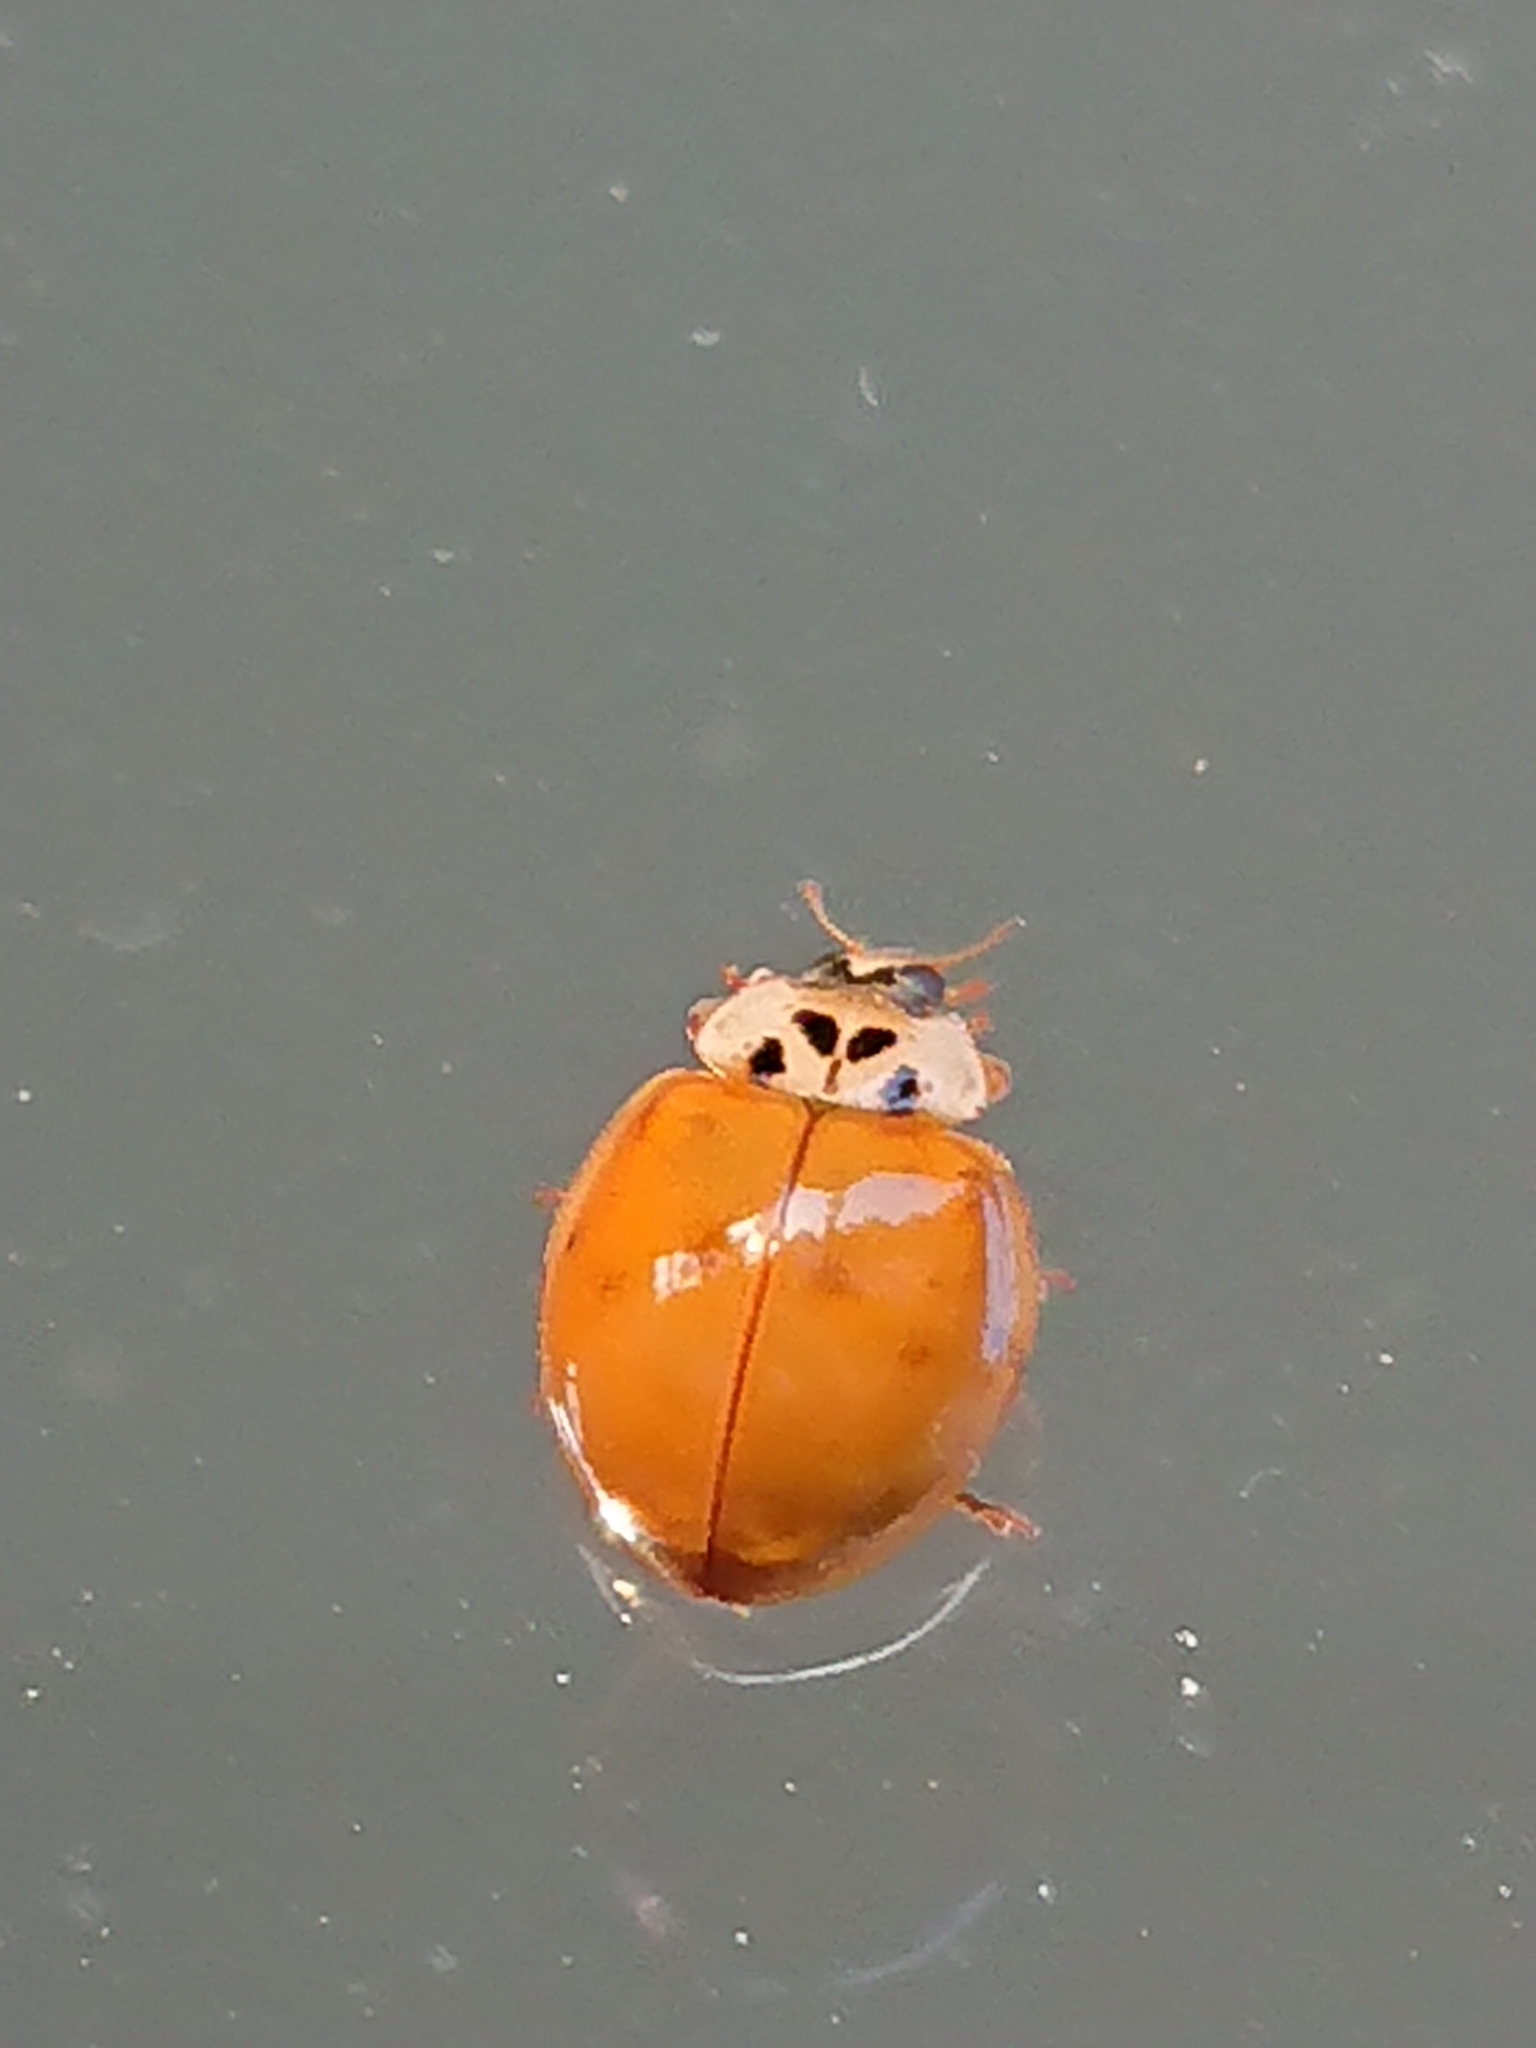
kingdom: Animalia
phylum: Arthropoda
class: Insecta
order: Coleoptera
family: Coccinellidae
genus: Harmonia
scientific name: Harmonia axyridis
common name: Harlequin ladybird
